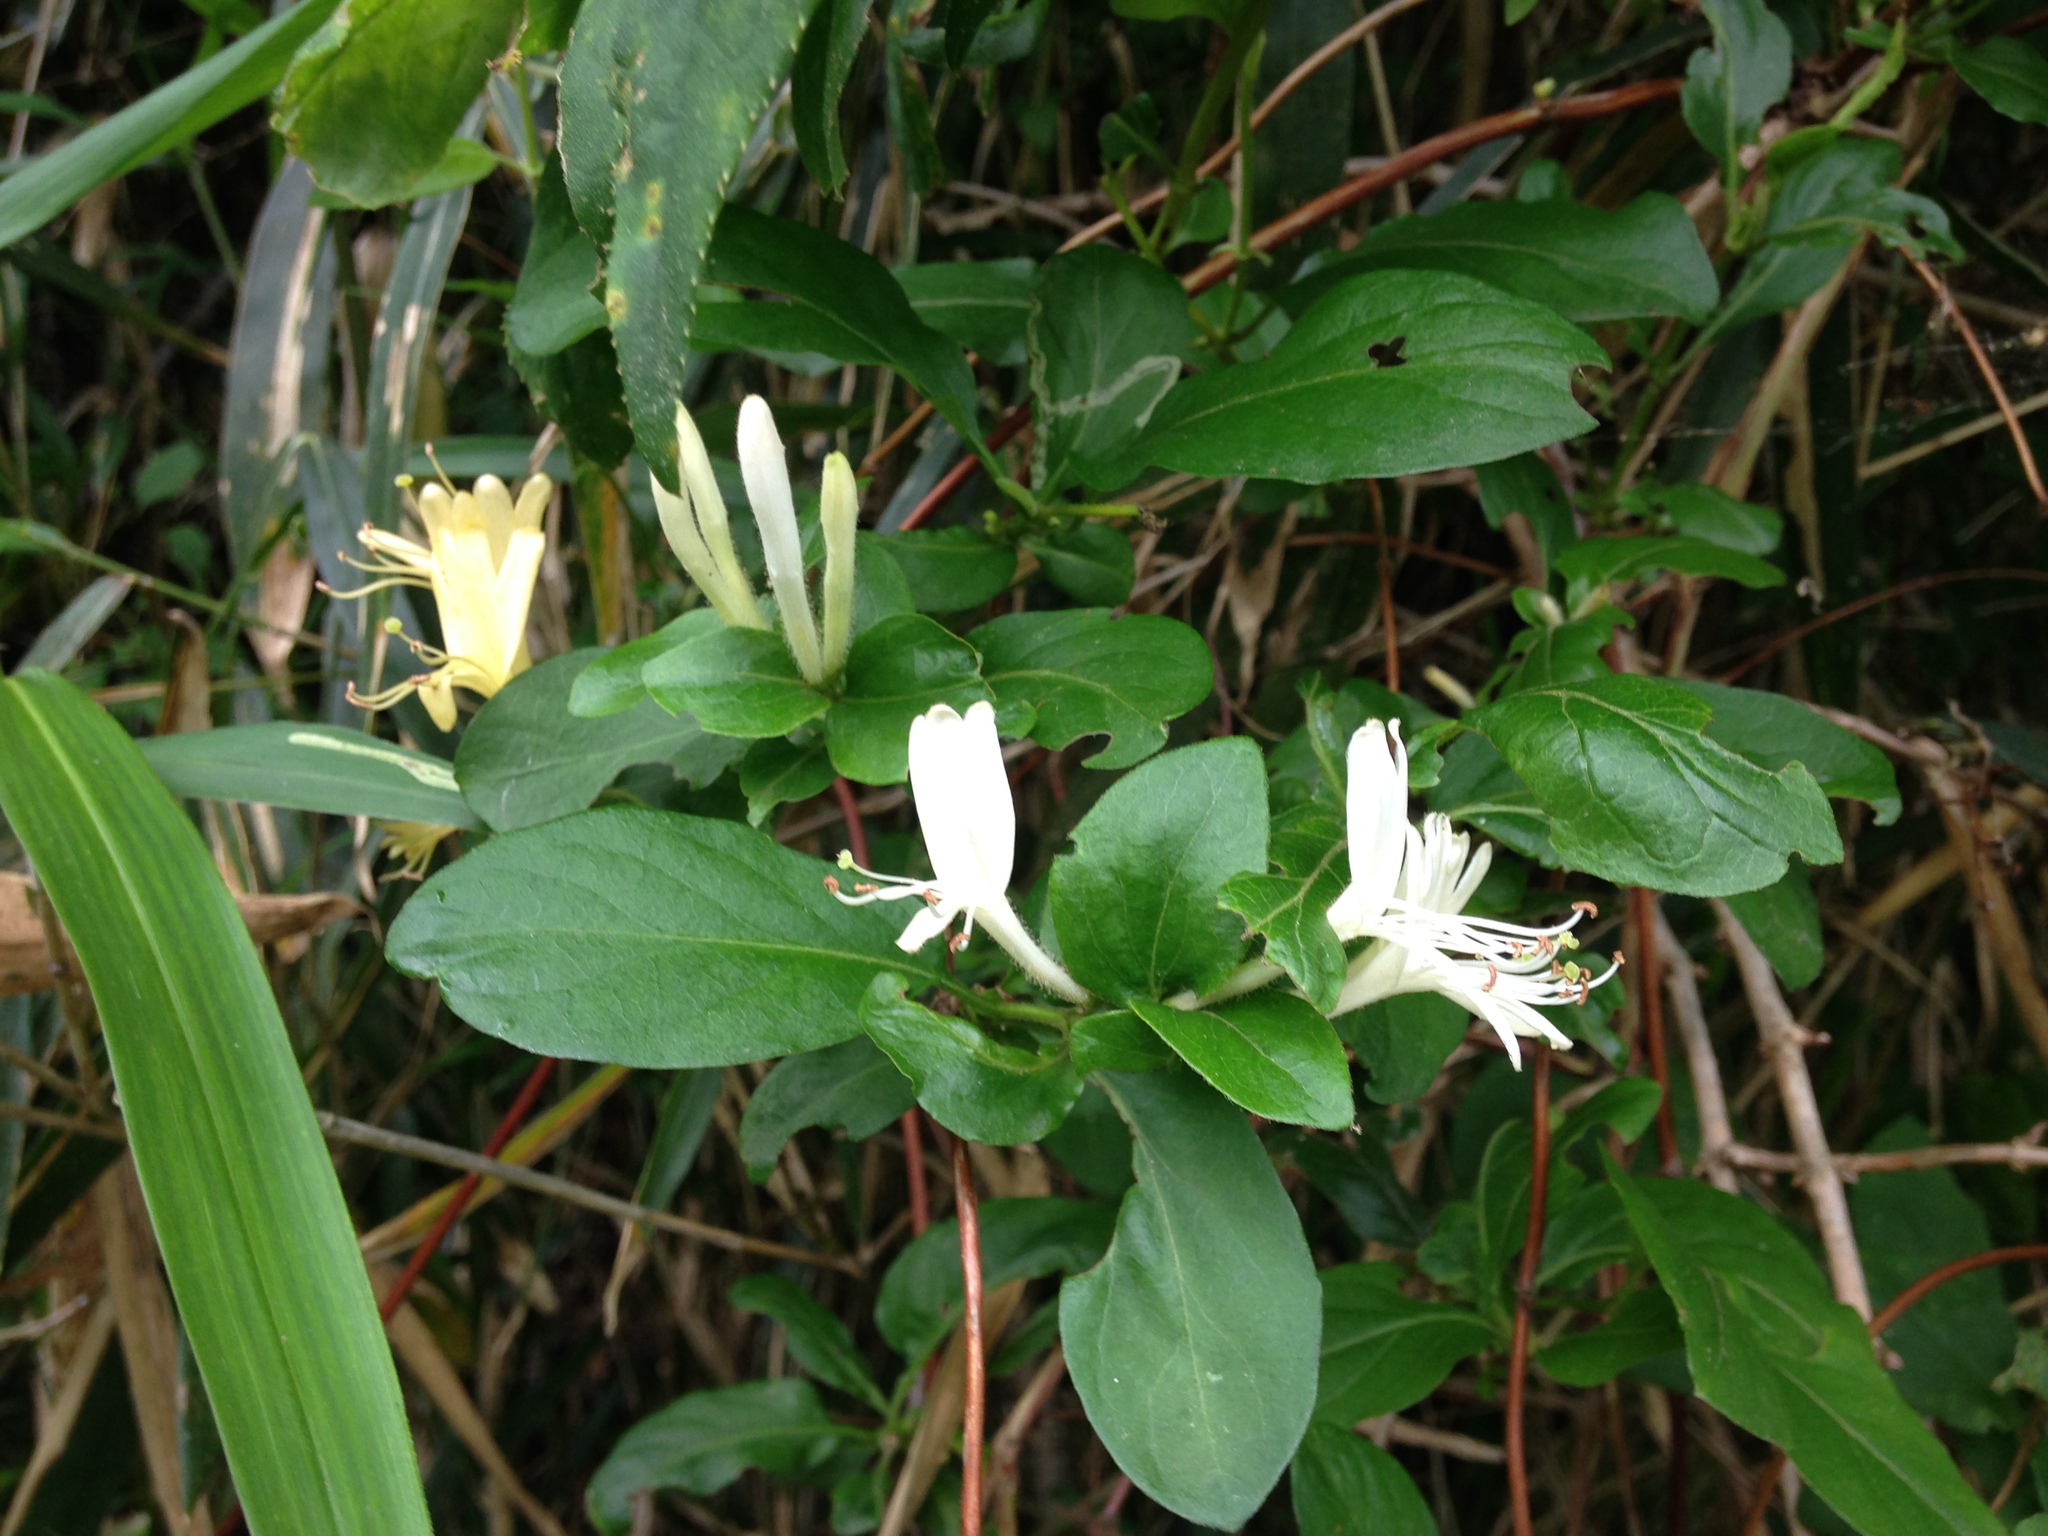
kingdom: Plantae
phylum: Tracheophyta
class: Magnoliopsida
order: Dipsacales
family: Caprifoliaceae
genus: Lonicera
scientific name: Lonicera japonica
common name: Japanese honeysuckle
